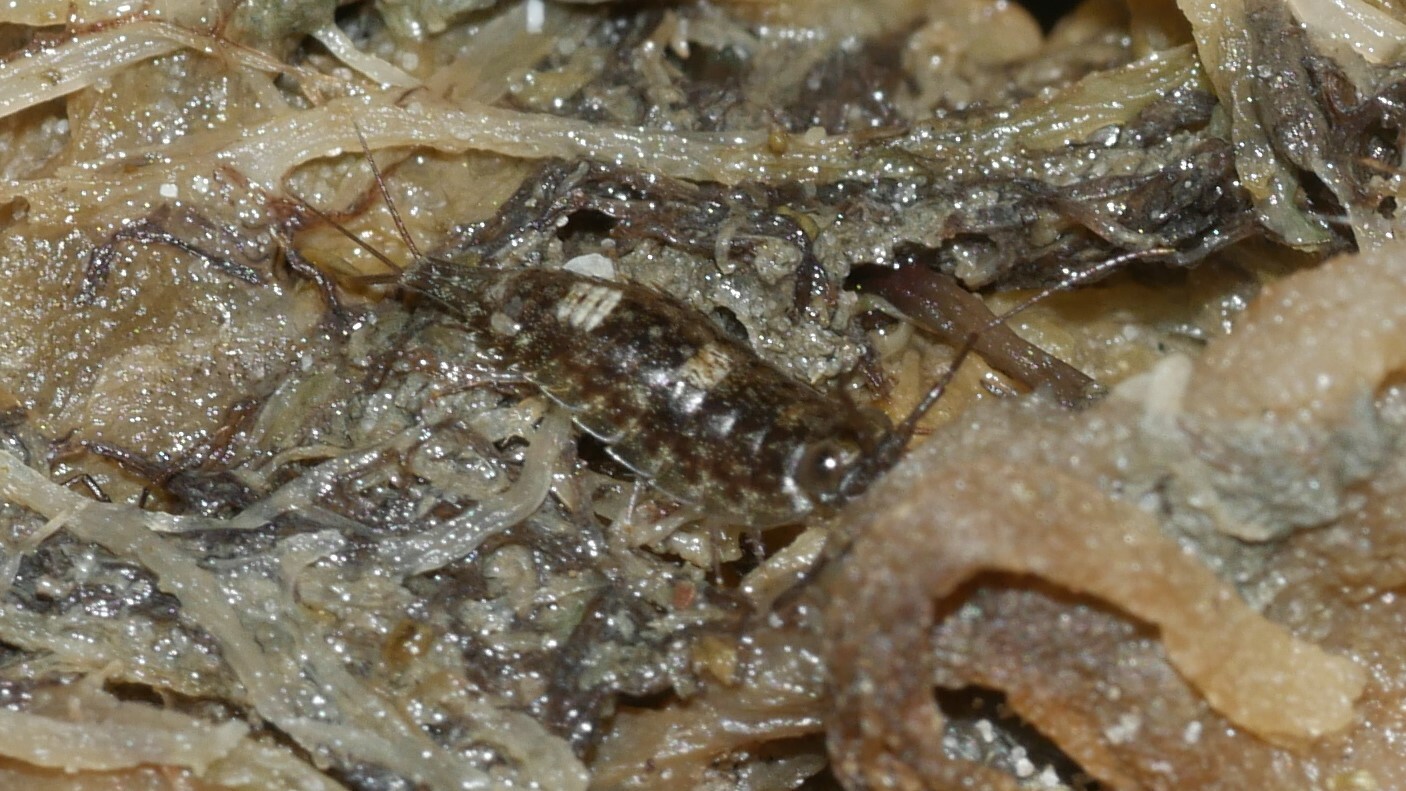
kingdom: Animalia
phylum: Arthropoda
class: Malacostraca
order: Isopoda
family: Ligiidae
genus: Ligia
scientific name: Ligia exotica
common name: Wharf roach
